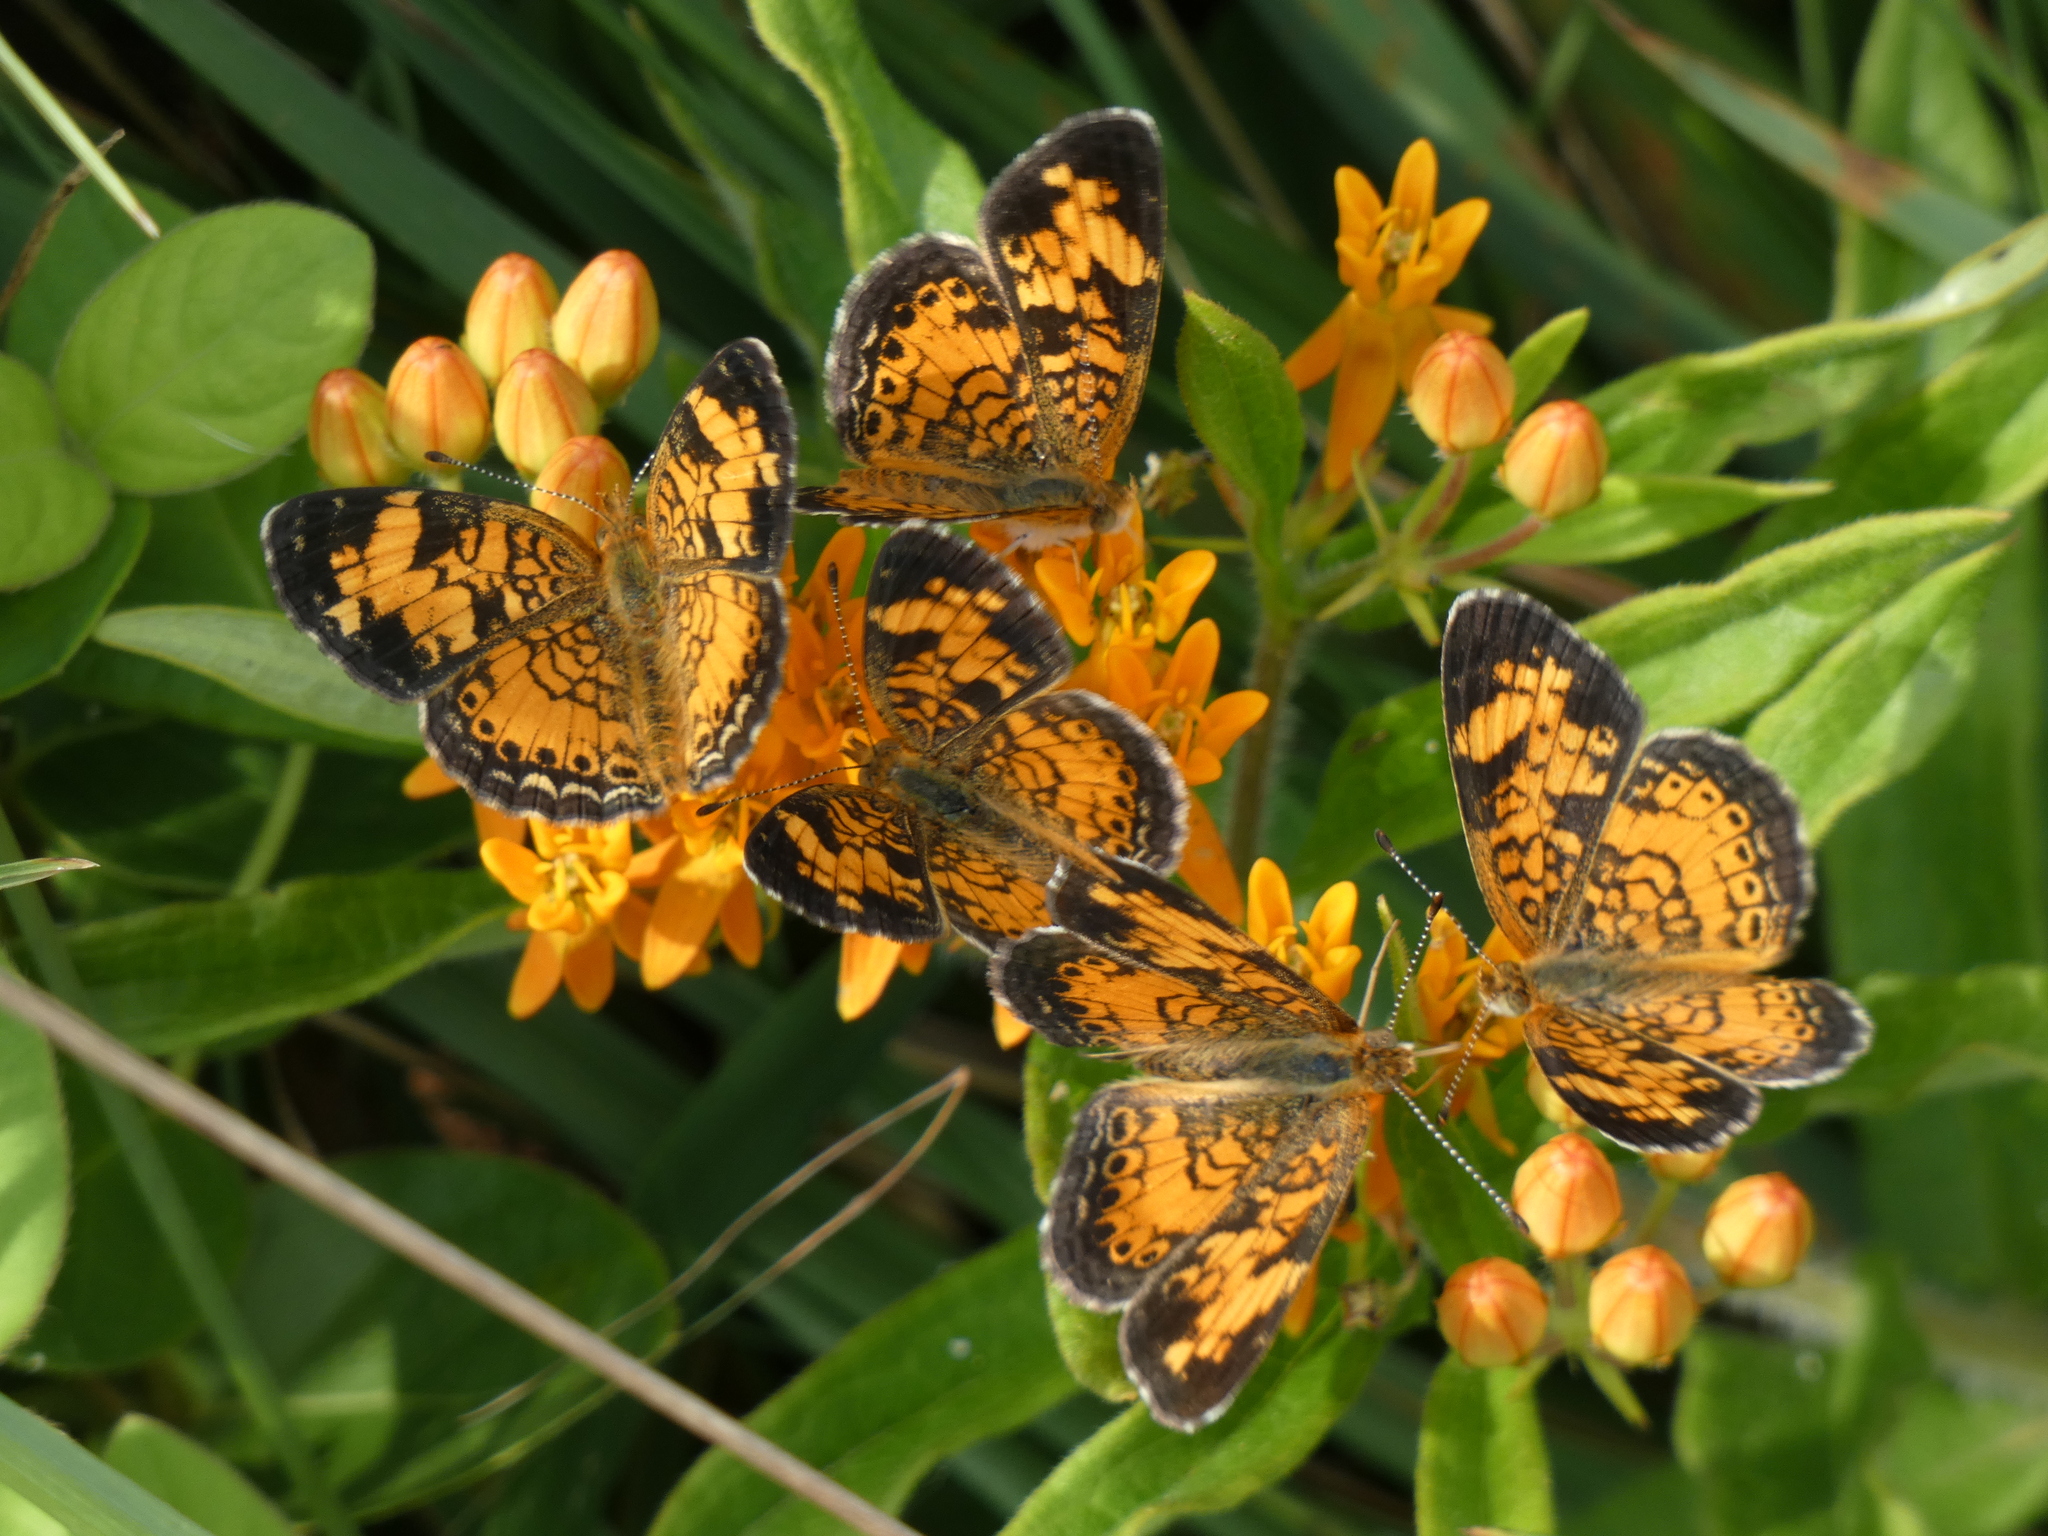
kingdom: Plantae
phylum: Tracheophyta
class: Magnoliopsida
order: Gentianales
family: Apocynaceae
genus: Asclepias
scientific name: Asclepias tuberosa
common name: Butterfly milkweed
